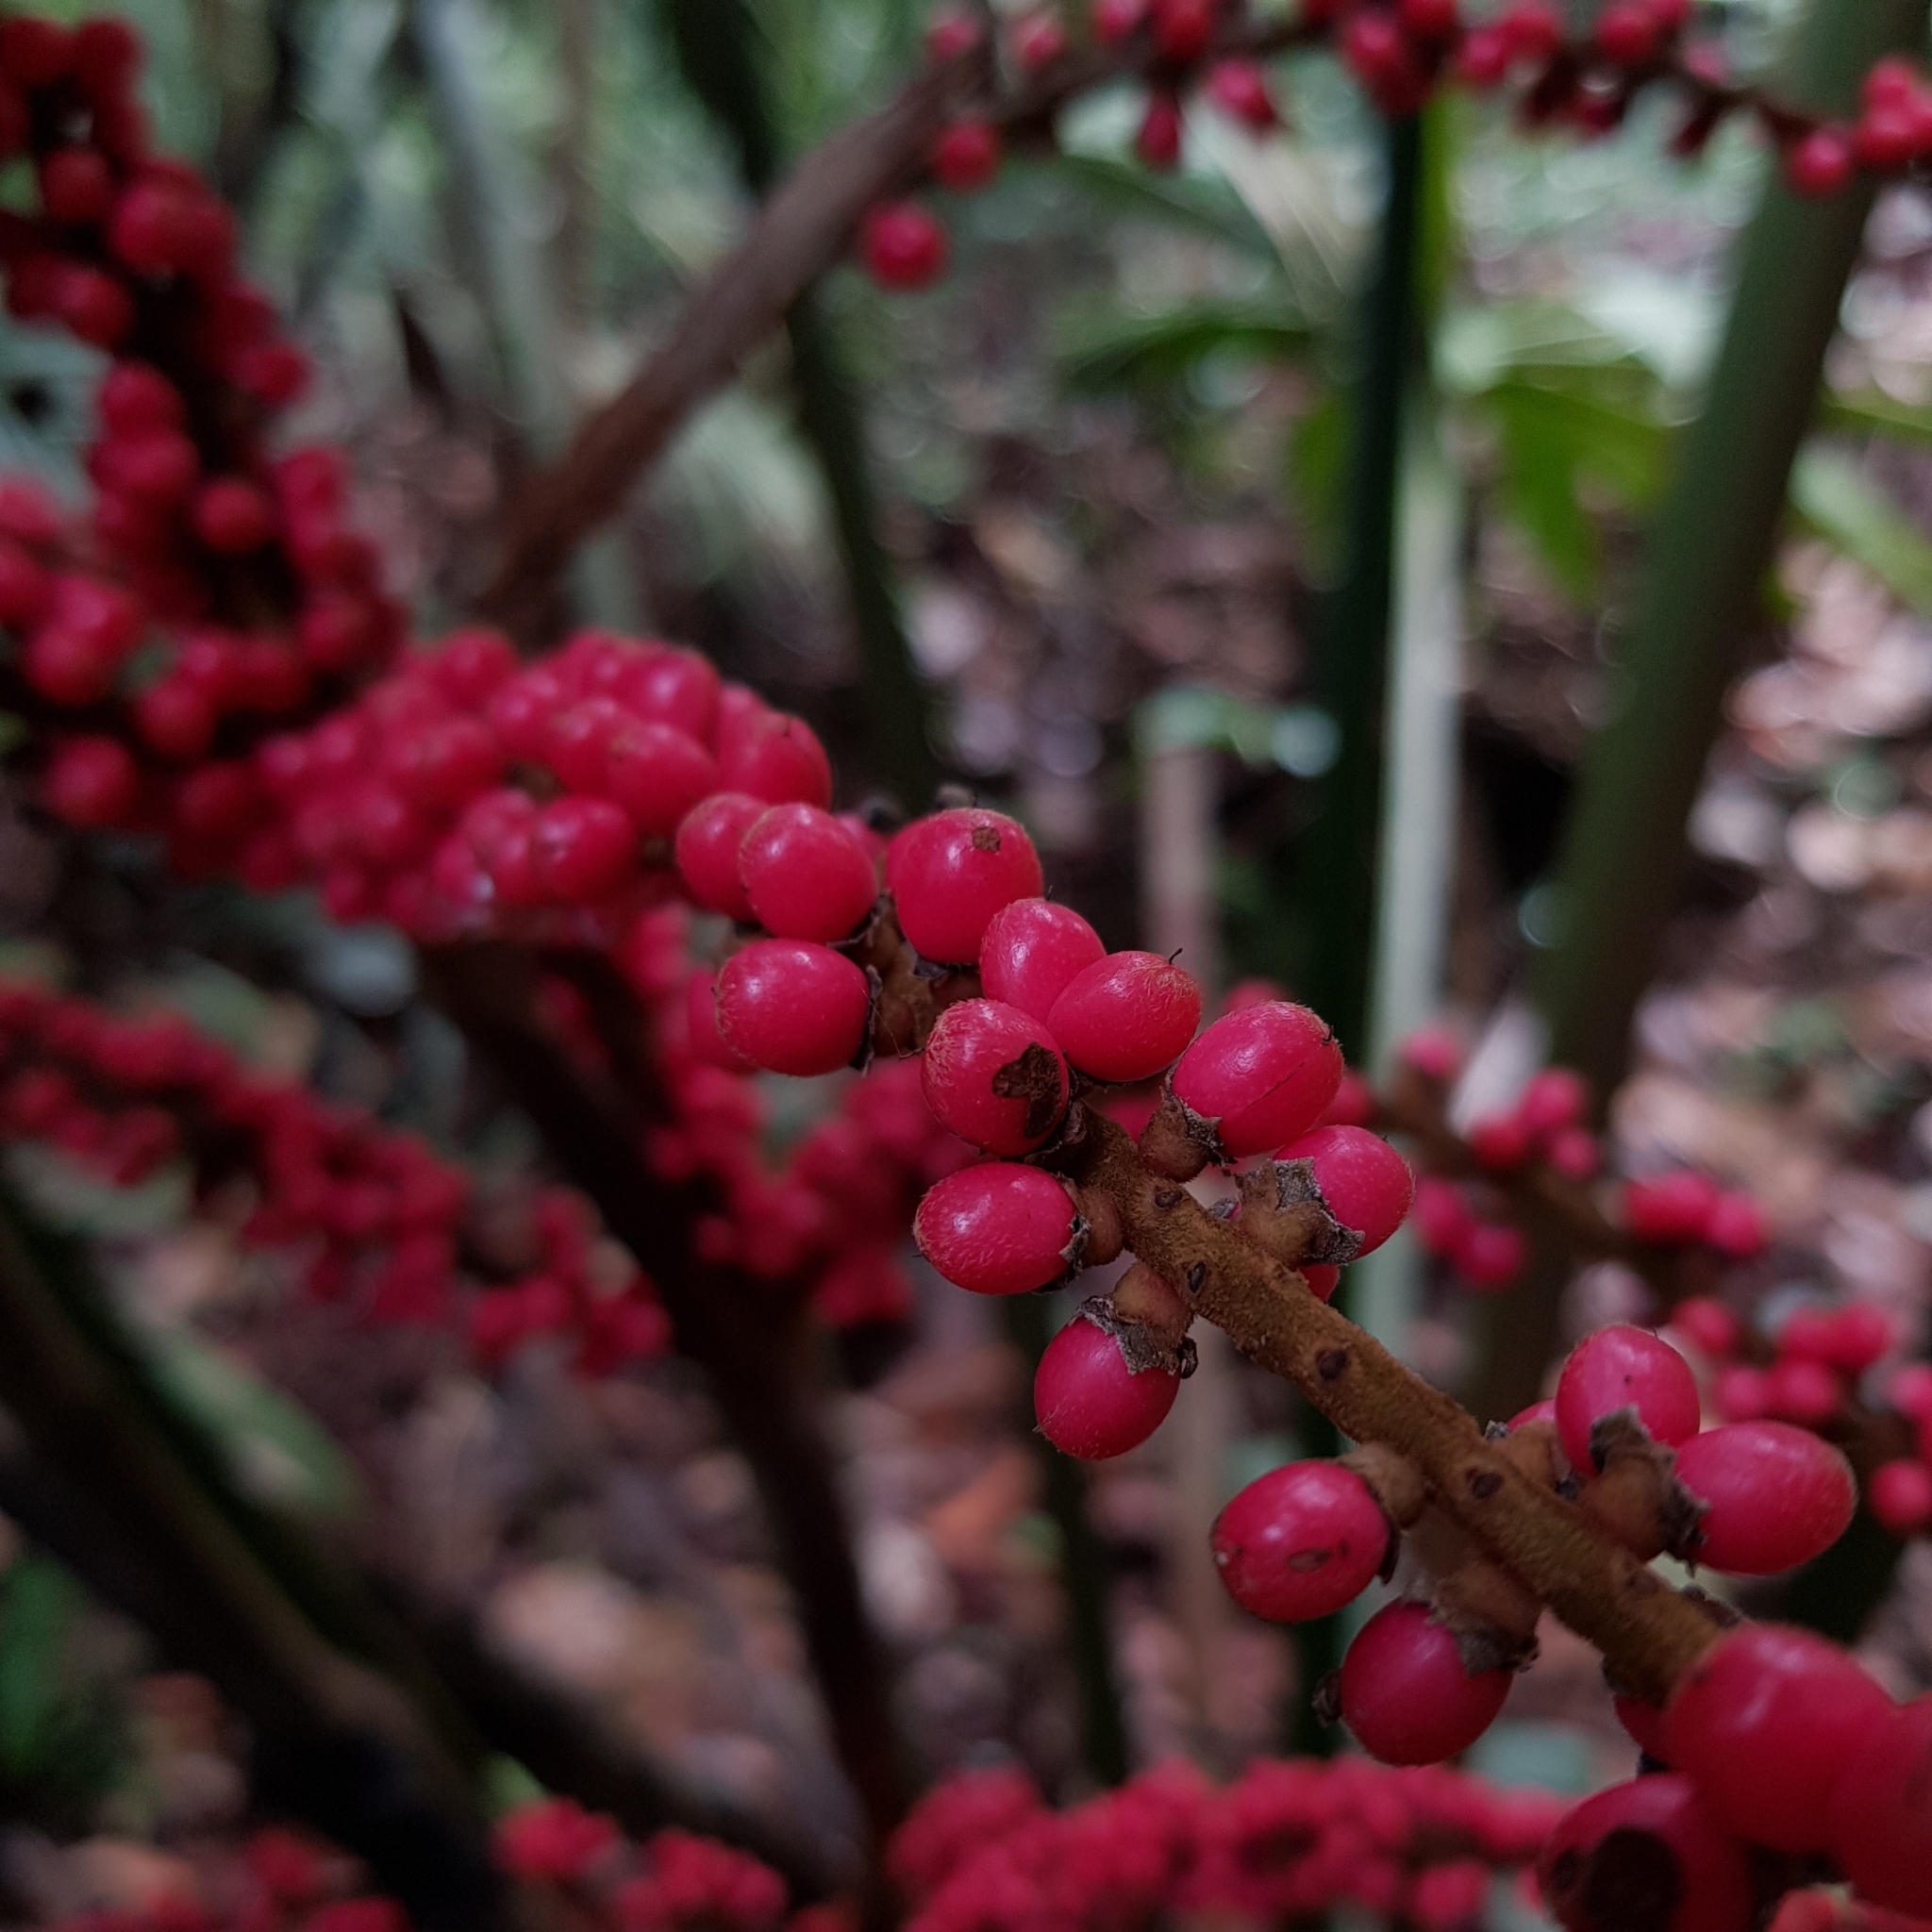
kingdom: Plantae
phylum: Tracheophyta
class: Liliopsida
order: Arecales
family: Arecaceae
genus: Licuala
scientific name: Licuala ferruginea
